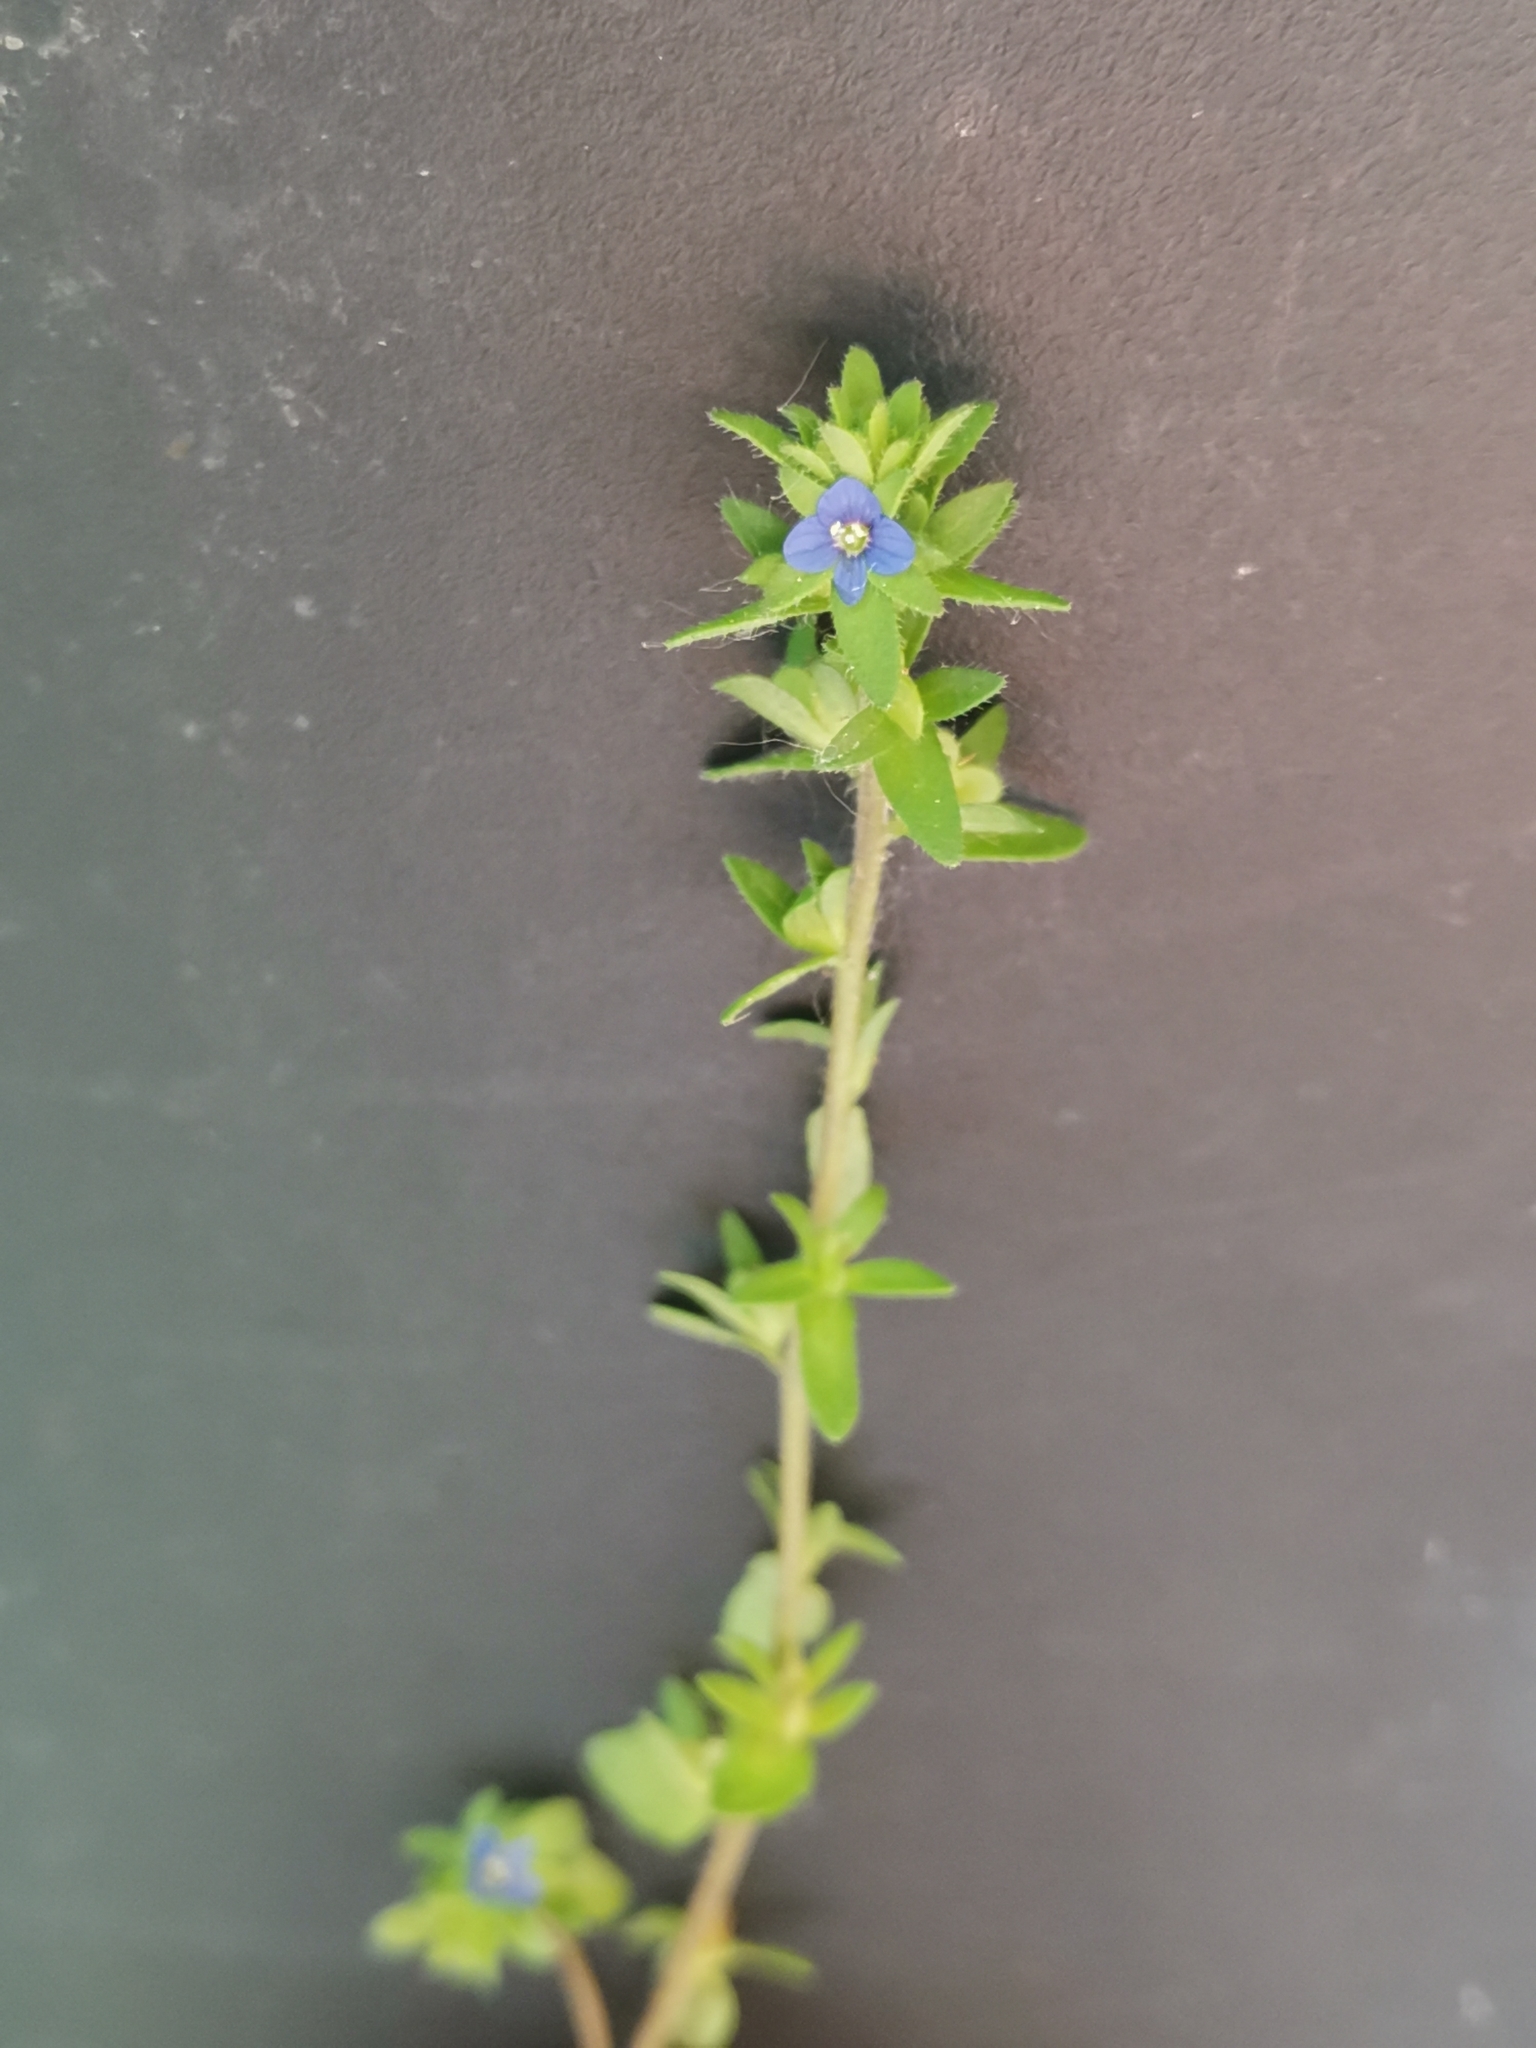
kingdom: Plantae
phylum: Tracheophyta
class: Magnoliopsida
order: Lamiales
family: Plantaginaceae
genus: Veronica
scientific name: Veronica arvensis
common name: Corn speedwell
